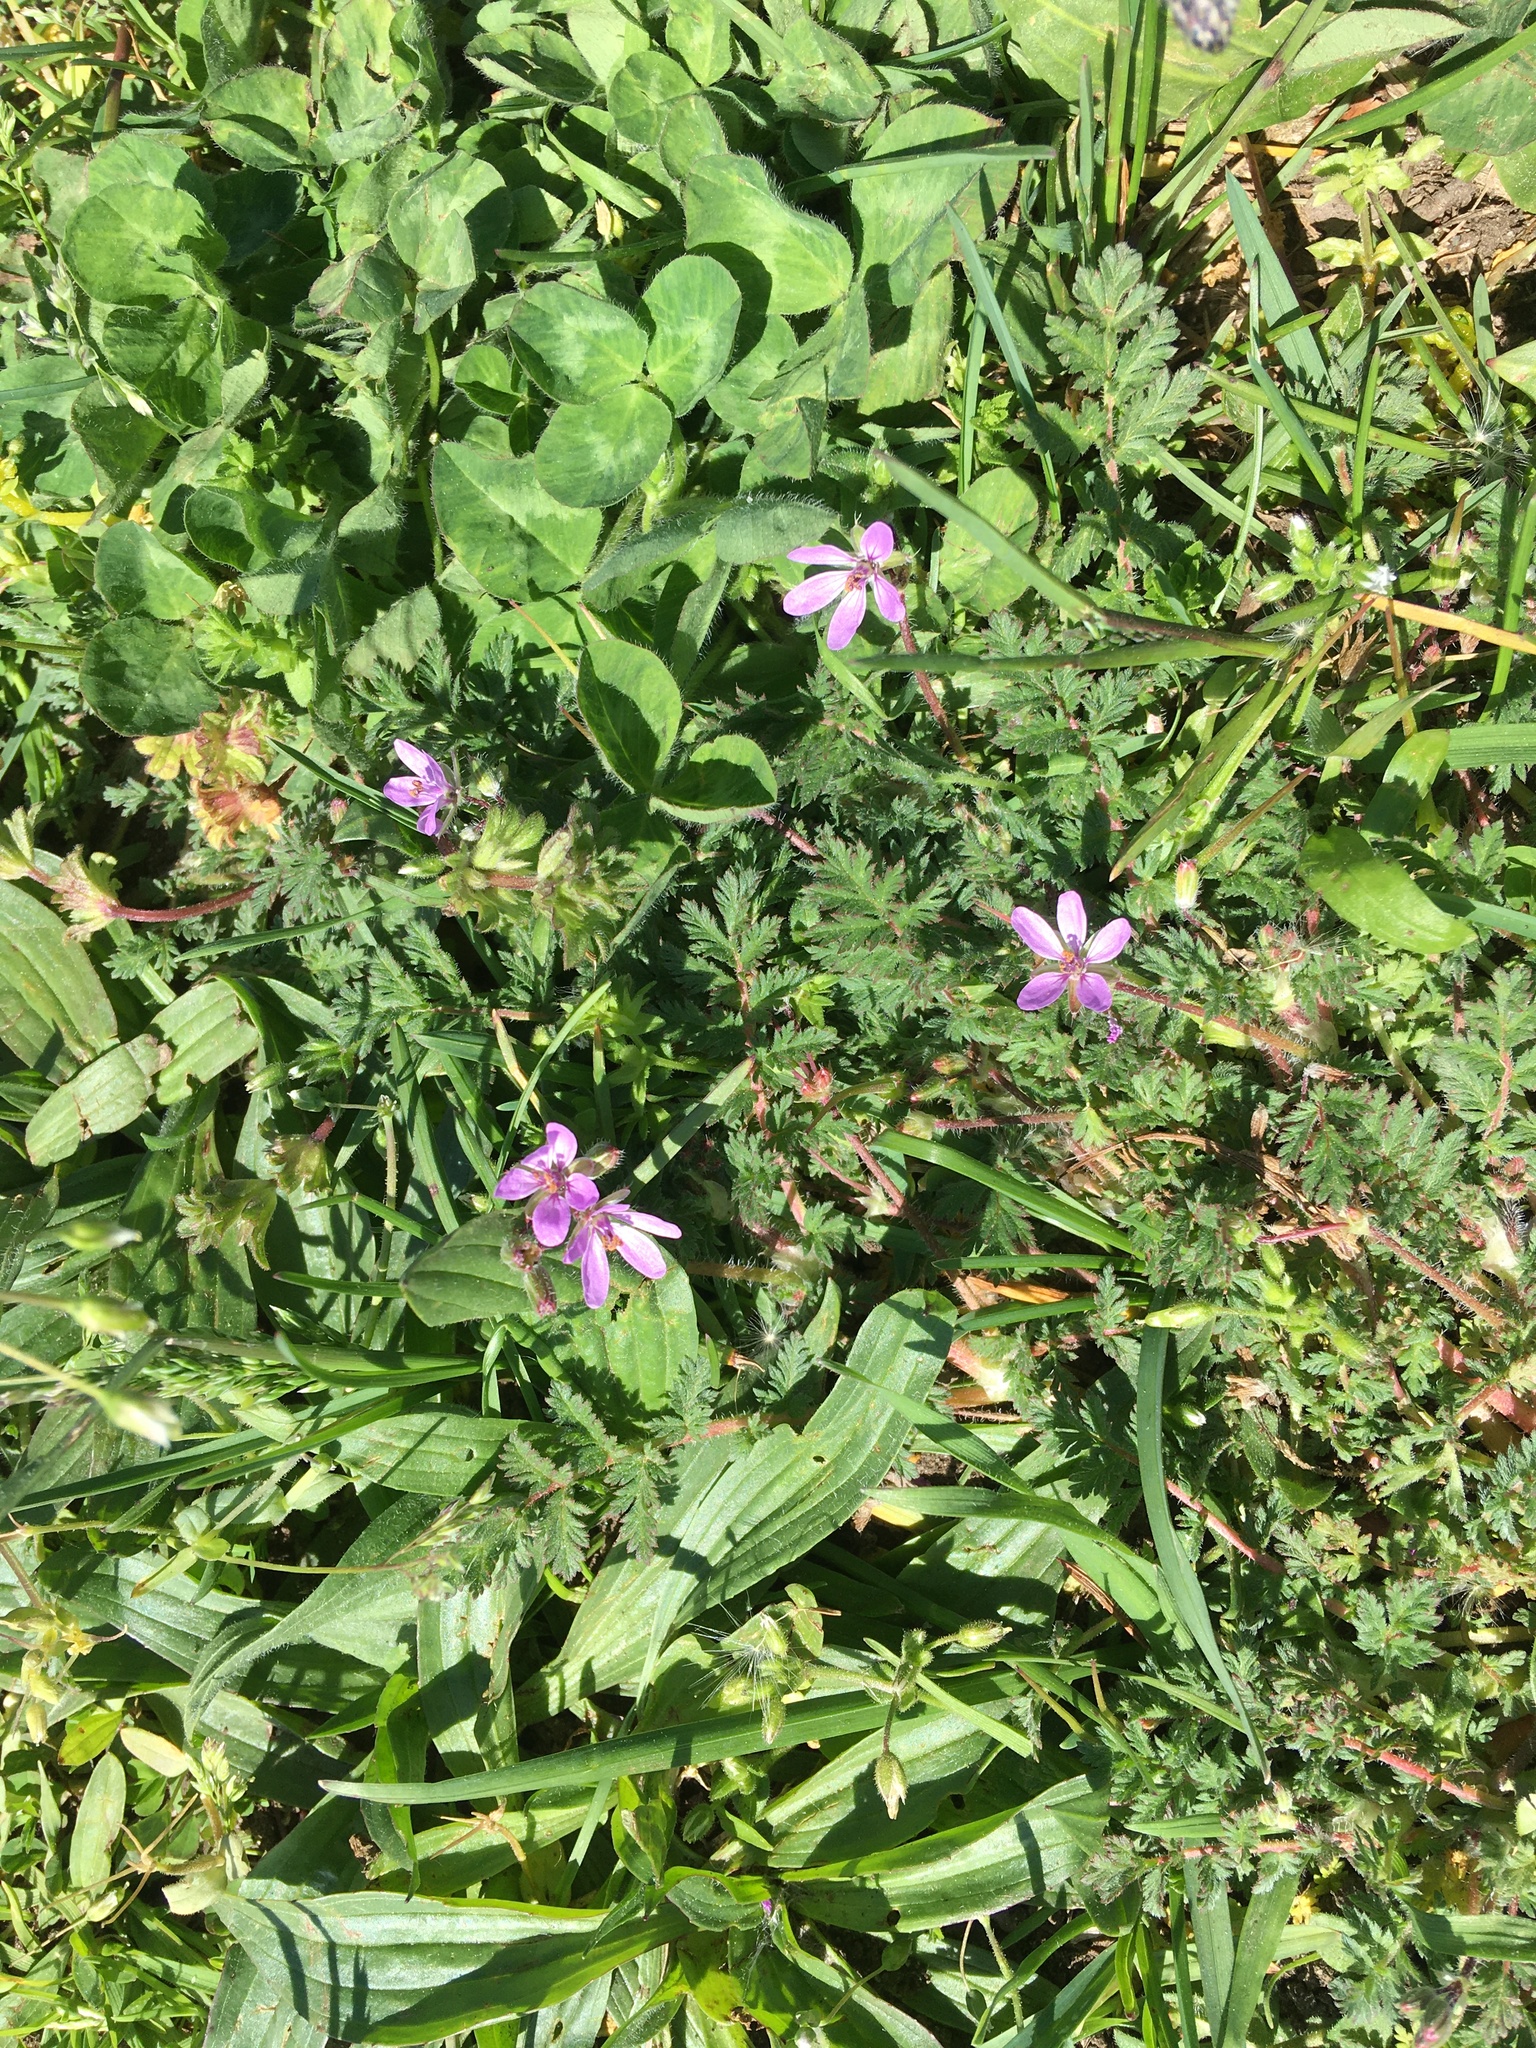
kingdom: Plantae
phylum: Tracheophyta
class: Magnoliopsida
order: Geraniales
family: Geraniaceae
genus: Erodium
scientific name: Erodium cicutarium
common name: Common stork's-bill
